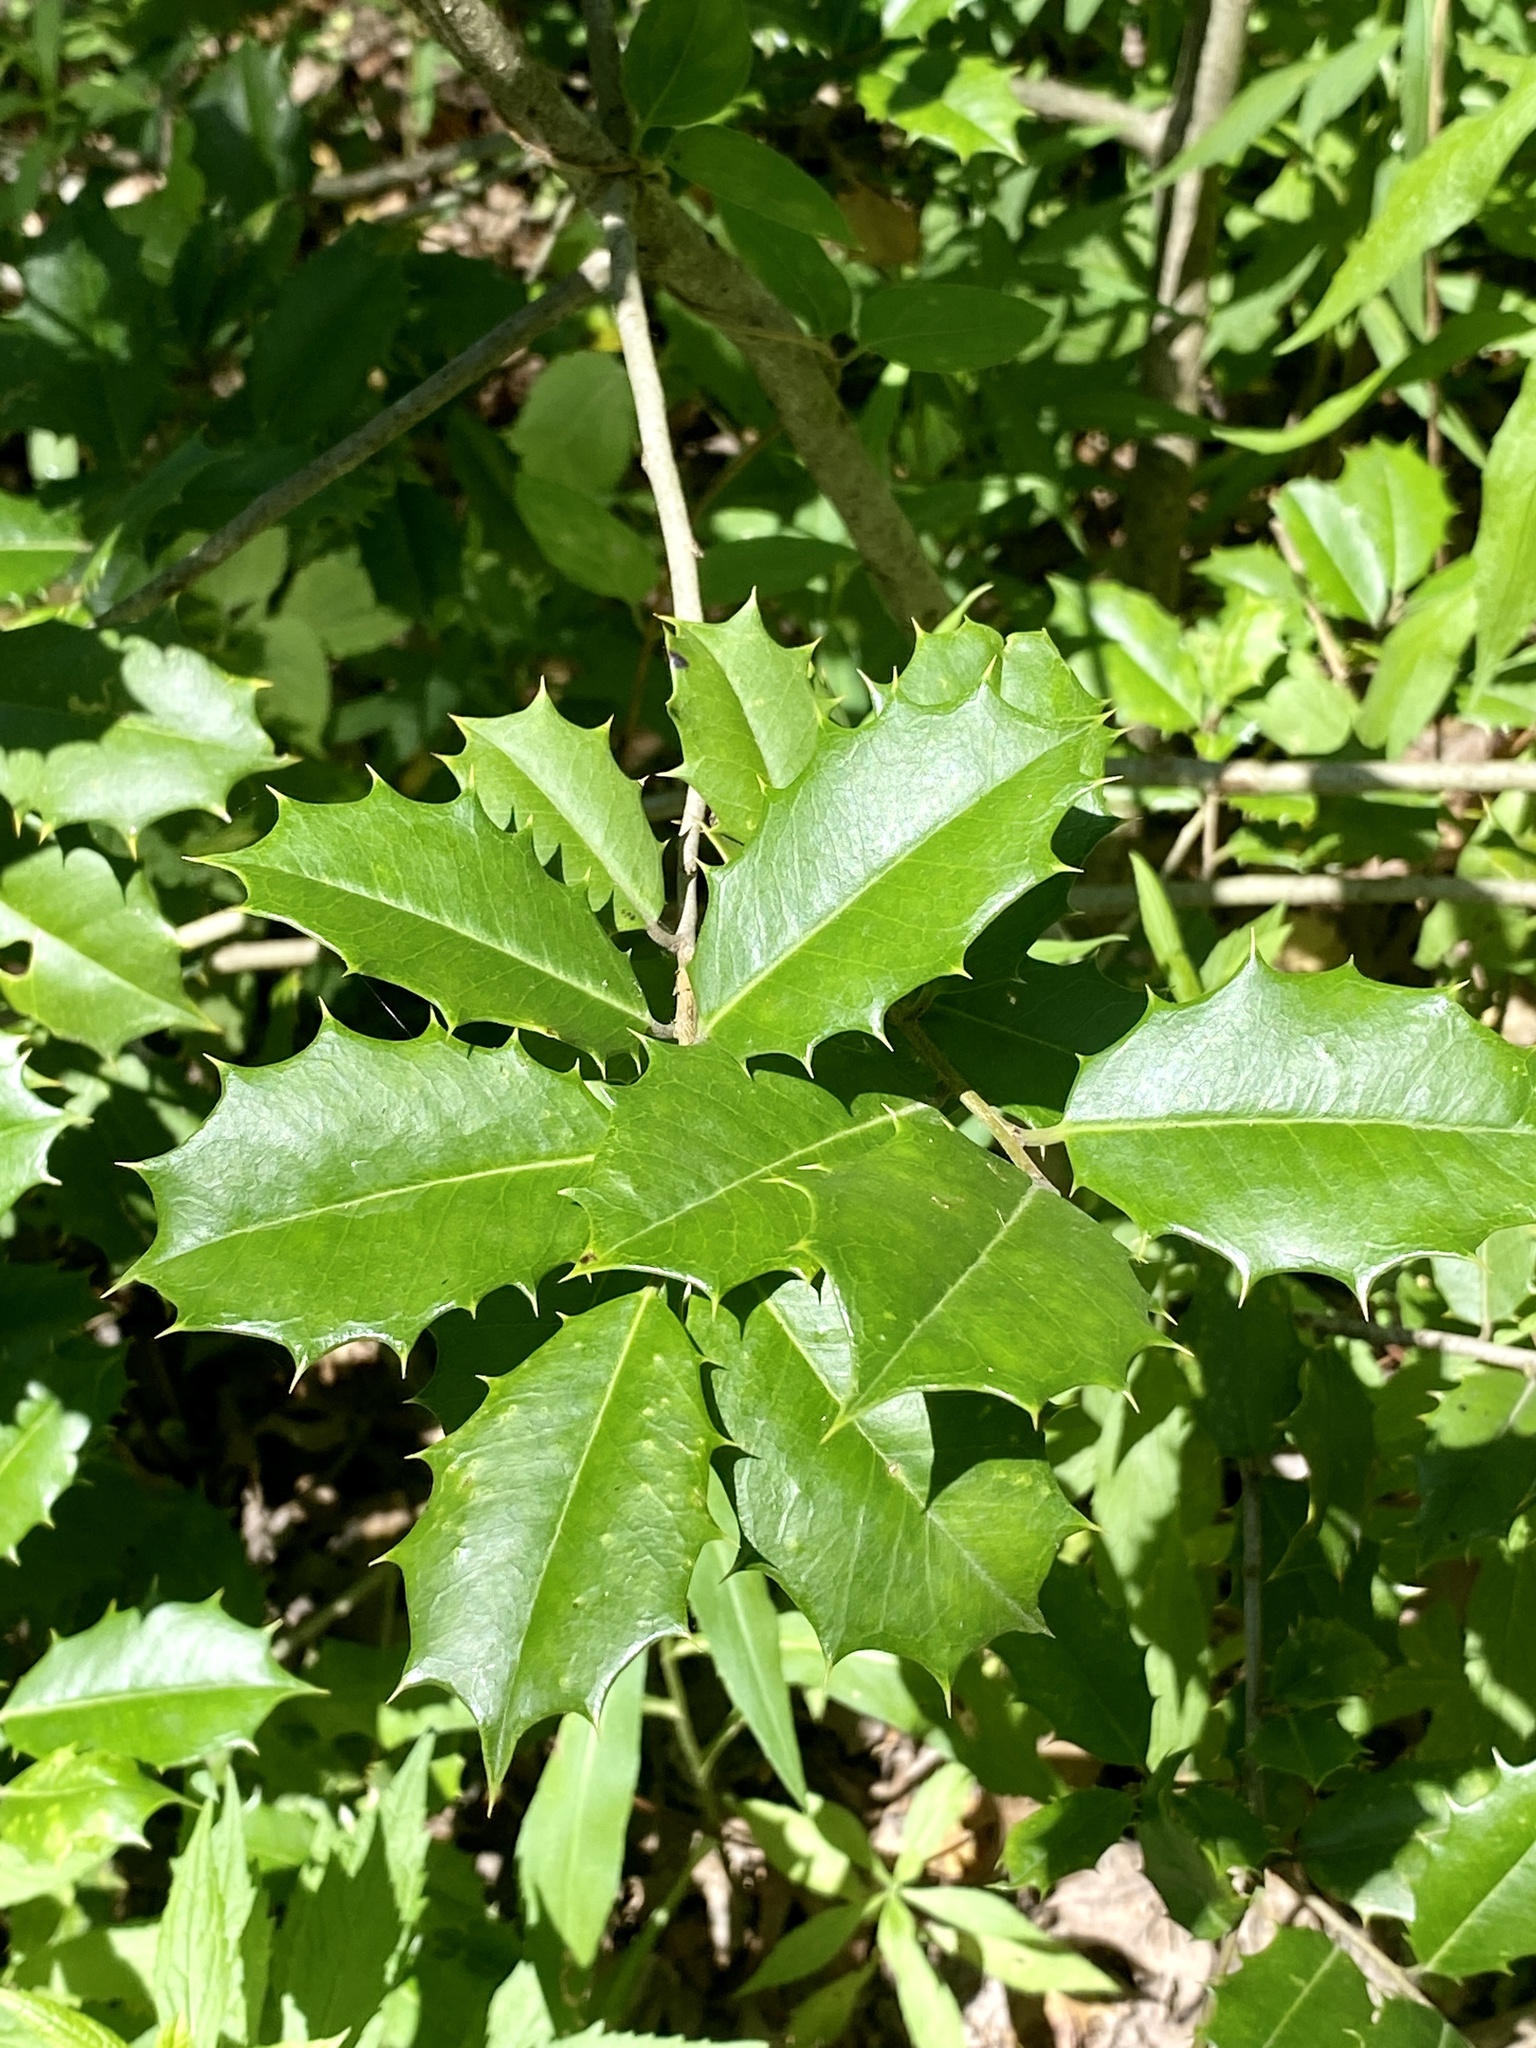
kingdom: Plantae
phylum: Tracheophyta
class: Magnoliopsida
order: Aquifoliales
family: Aquifoliaceae
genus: Ilex
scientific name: Ilex opaca
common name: American holly
